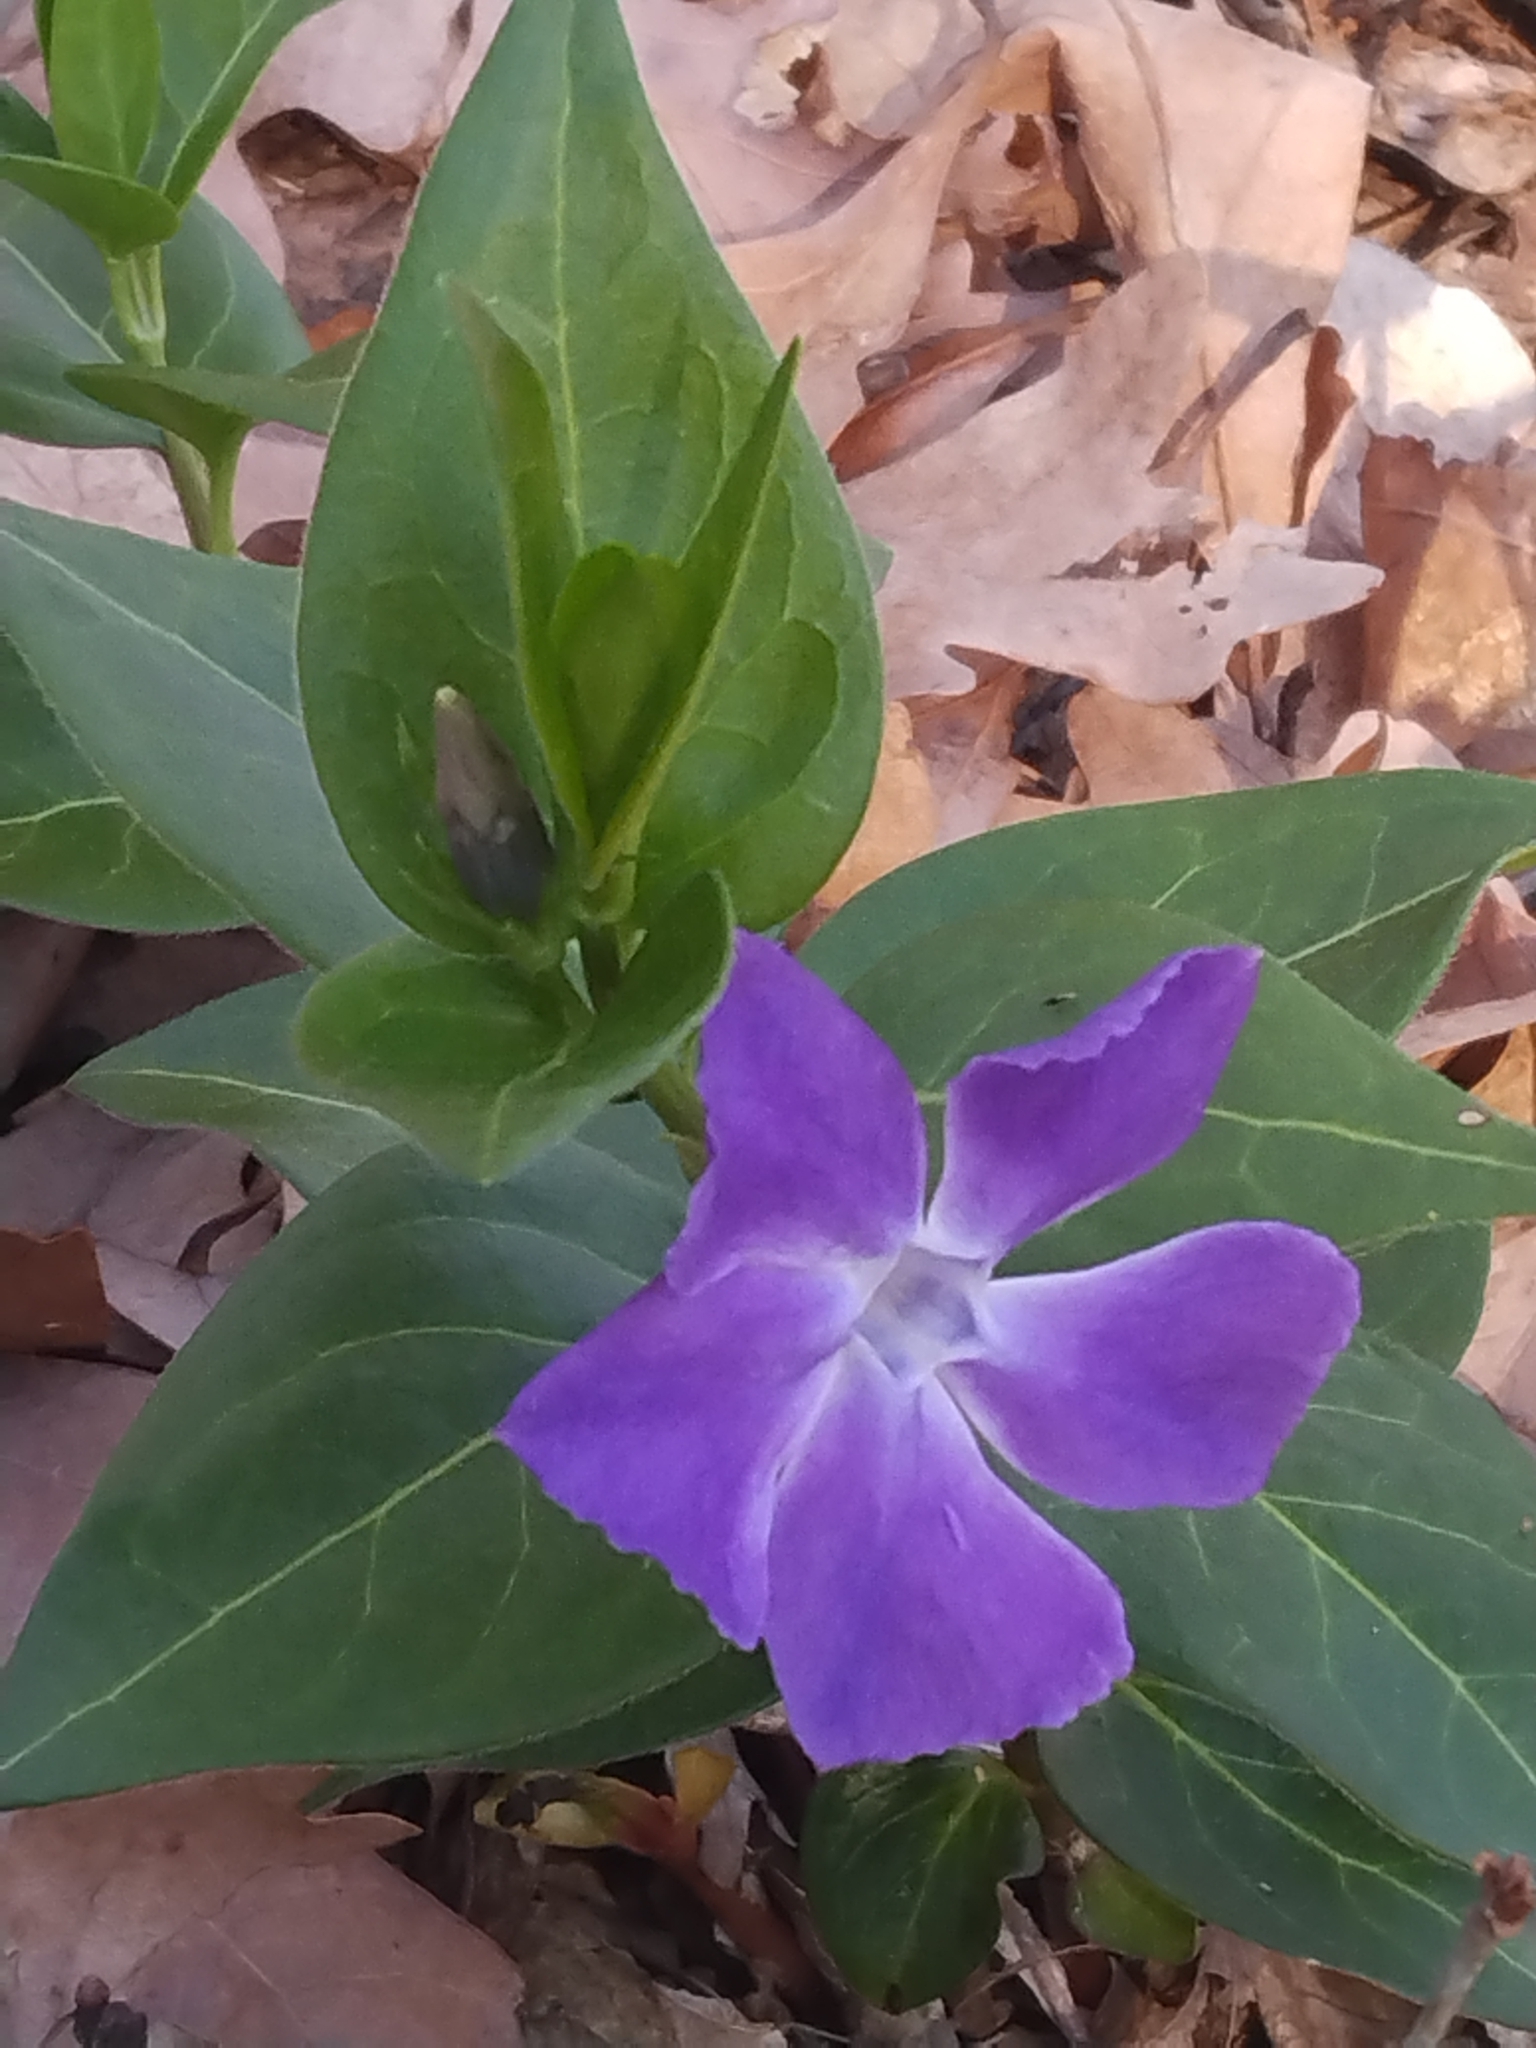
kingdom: Plantae
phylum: Tracheophyta
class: Magnoliopsida
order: Gentianales
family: Apocynaceae
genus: Vinca
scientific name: Vinca major
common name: Greater periwinkle
